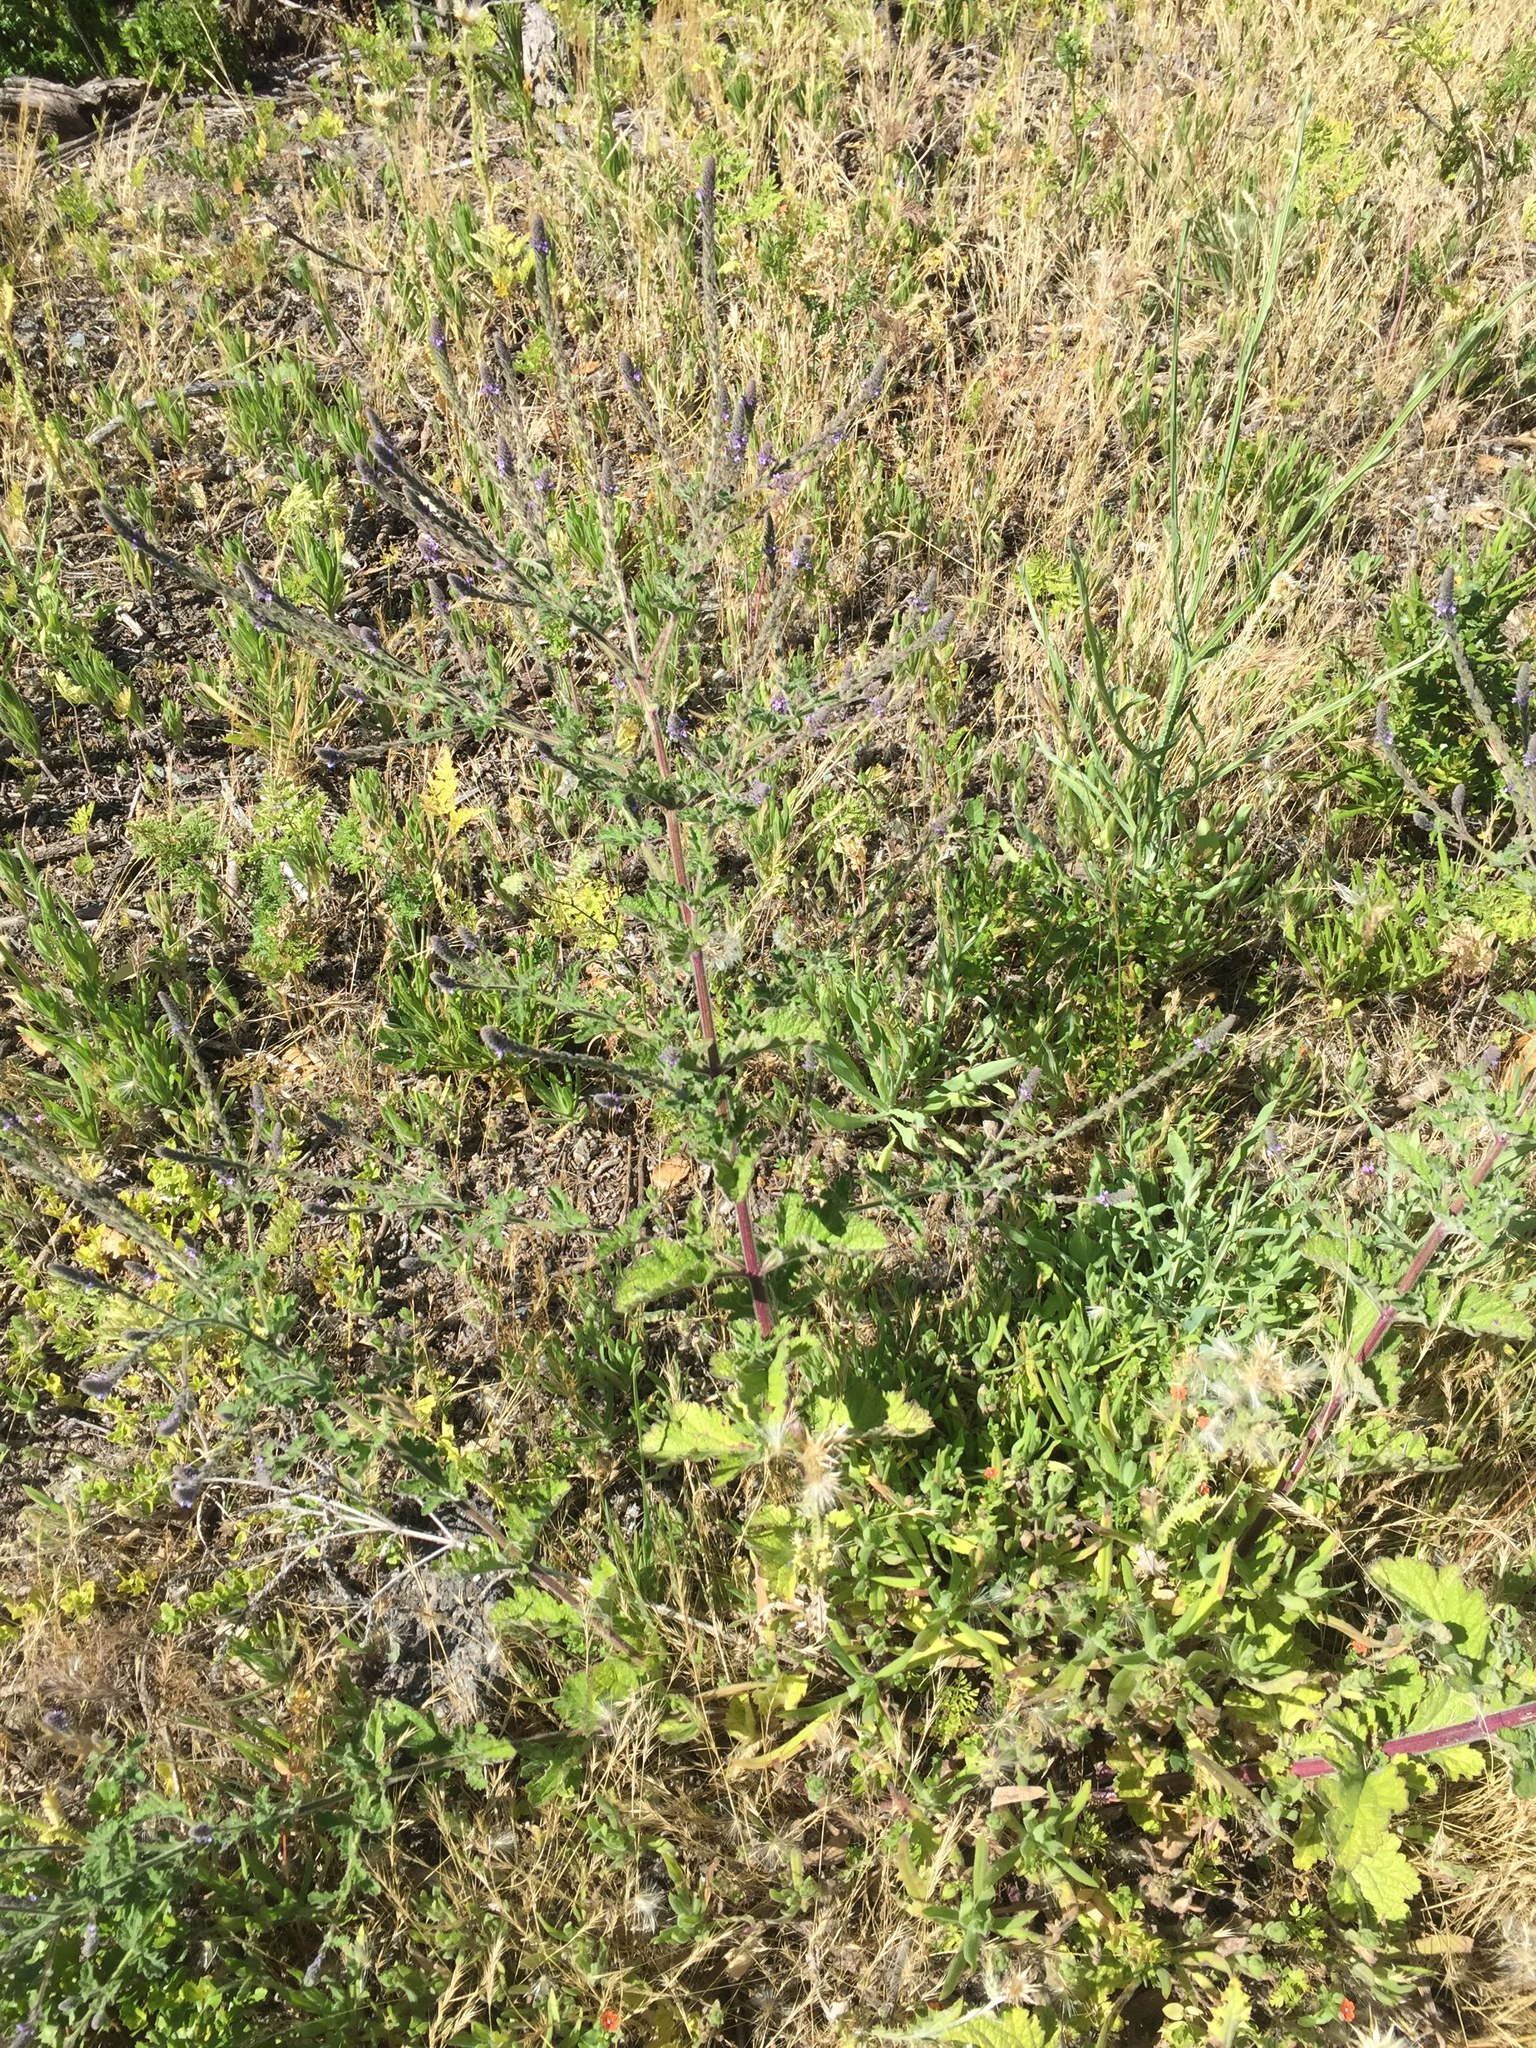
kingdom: Plantae
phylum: Tracheophyta
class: Magnoliopsida
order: Lamiales
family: Verbenaceae
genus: Verbena
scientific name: Verbena lasiostachys
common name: Vervain
